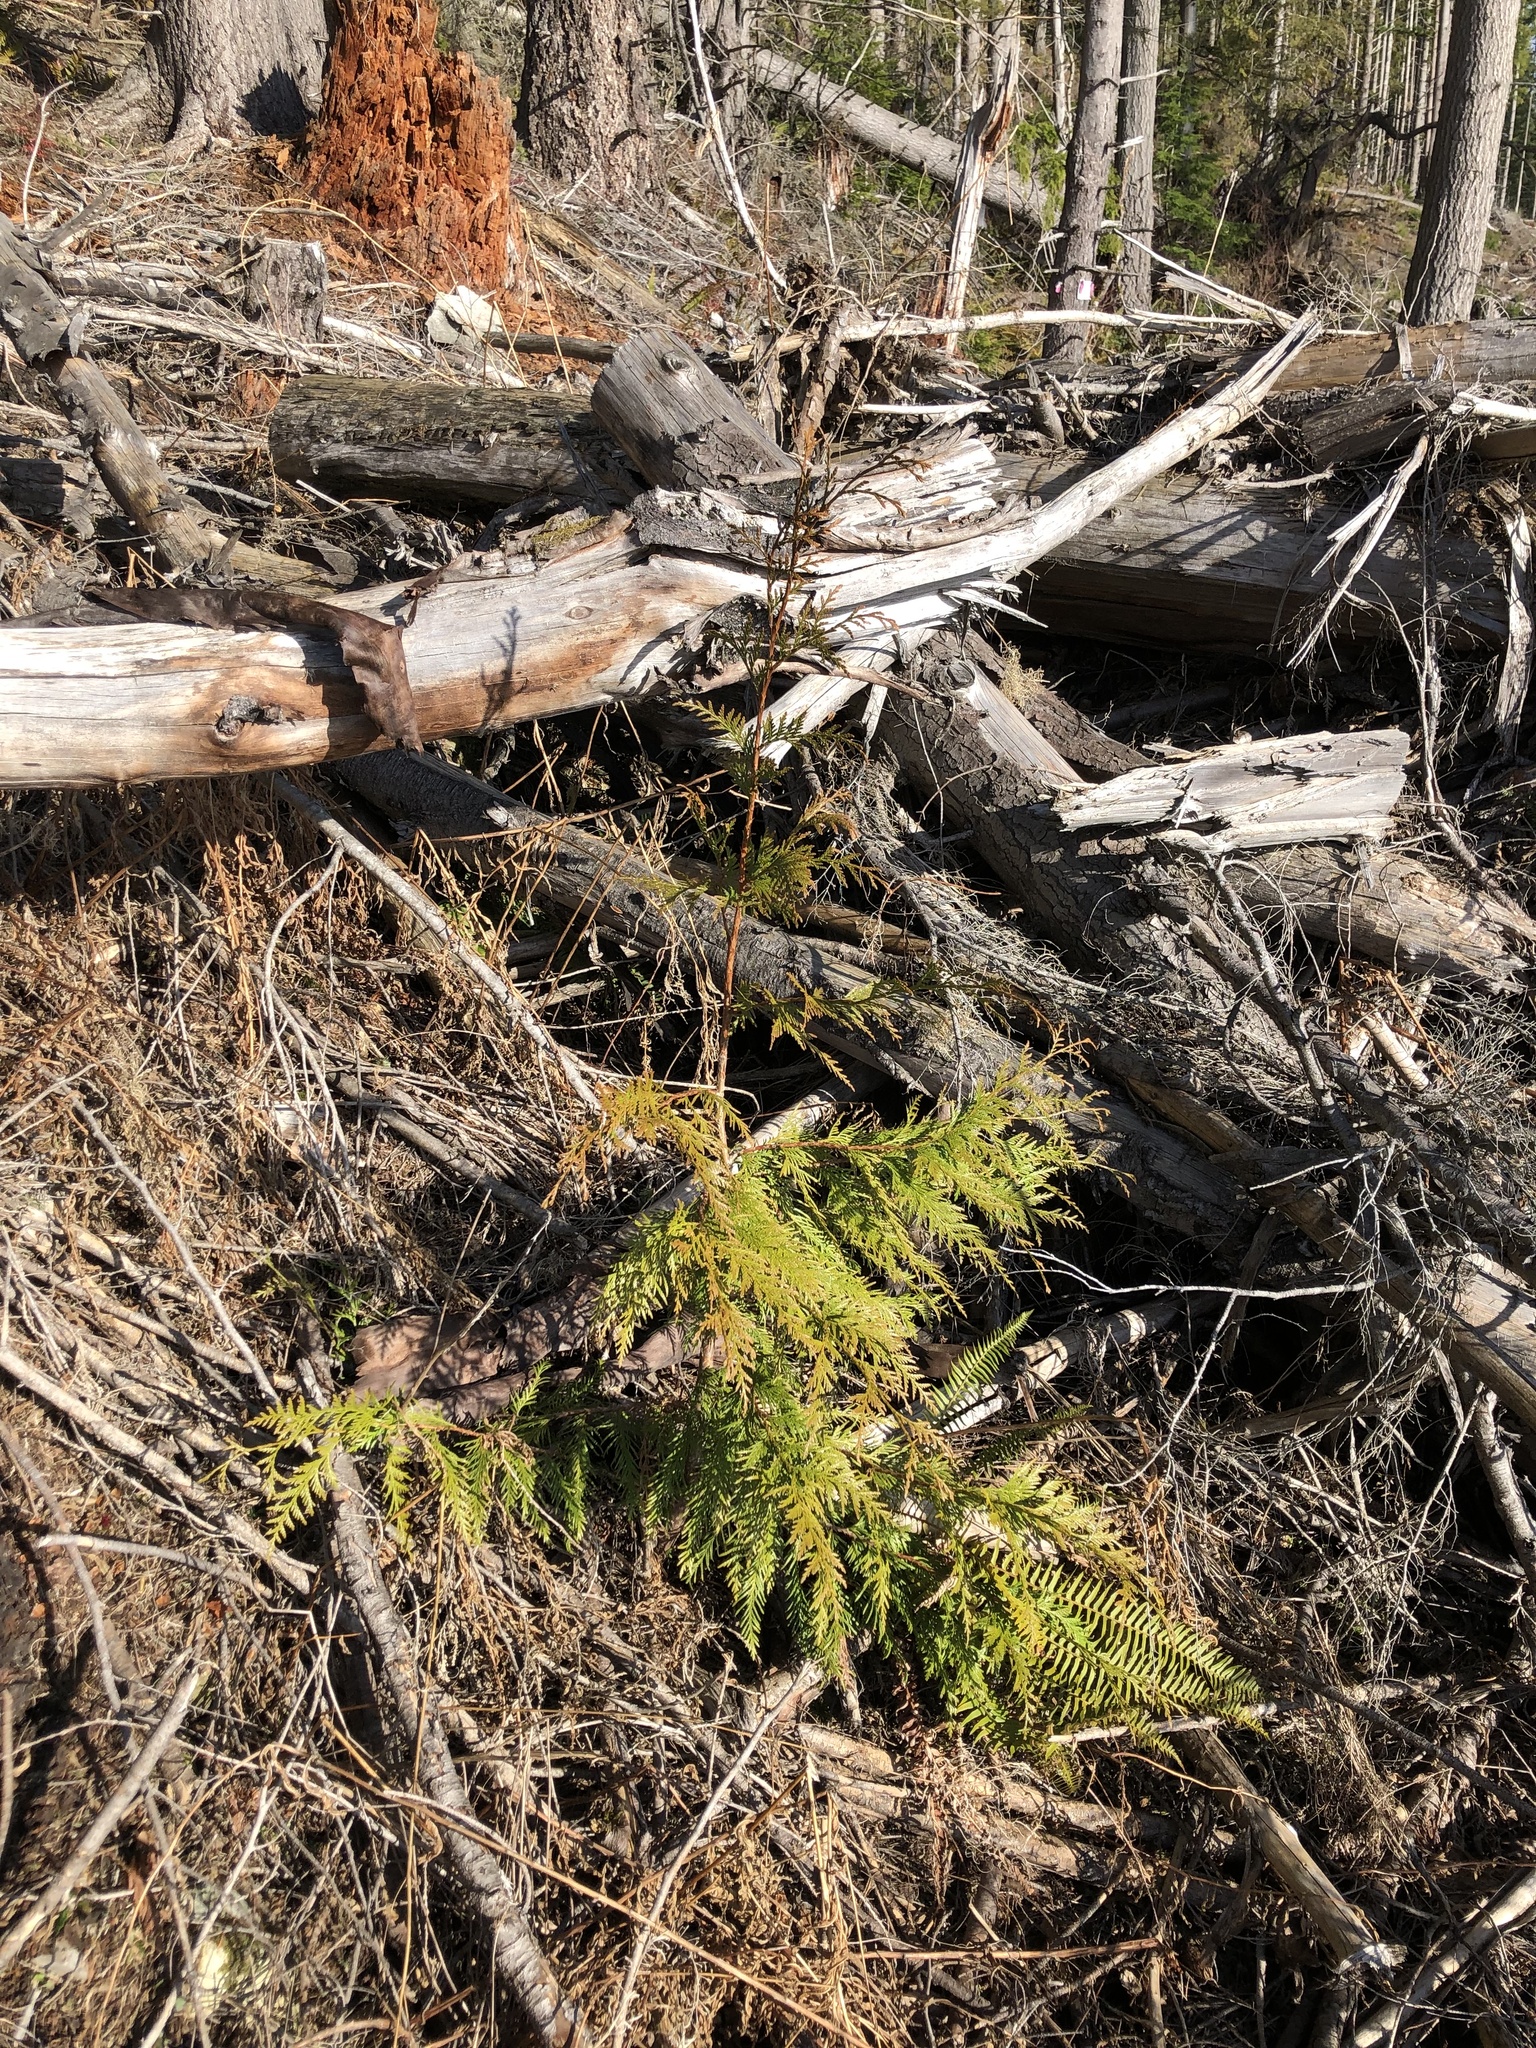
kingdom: Plantae
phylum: Tracheophyta
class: Pinopsida
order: Pinales
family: Cupressaceae
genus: Thuja
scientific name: Thuja plicata
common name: Western red-cedar
